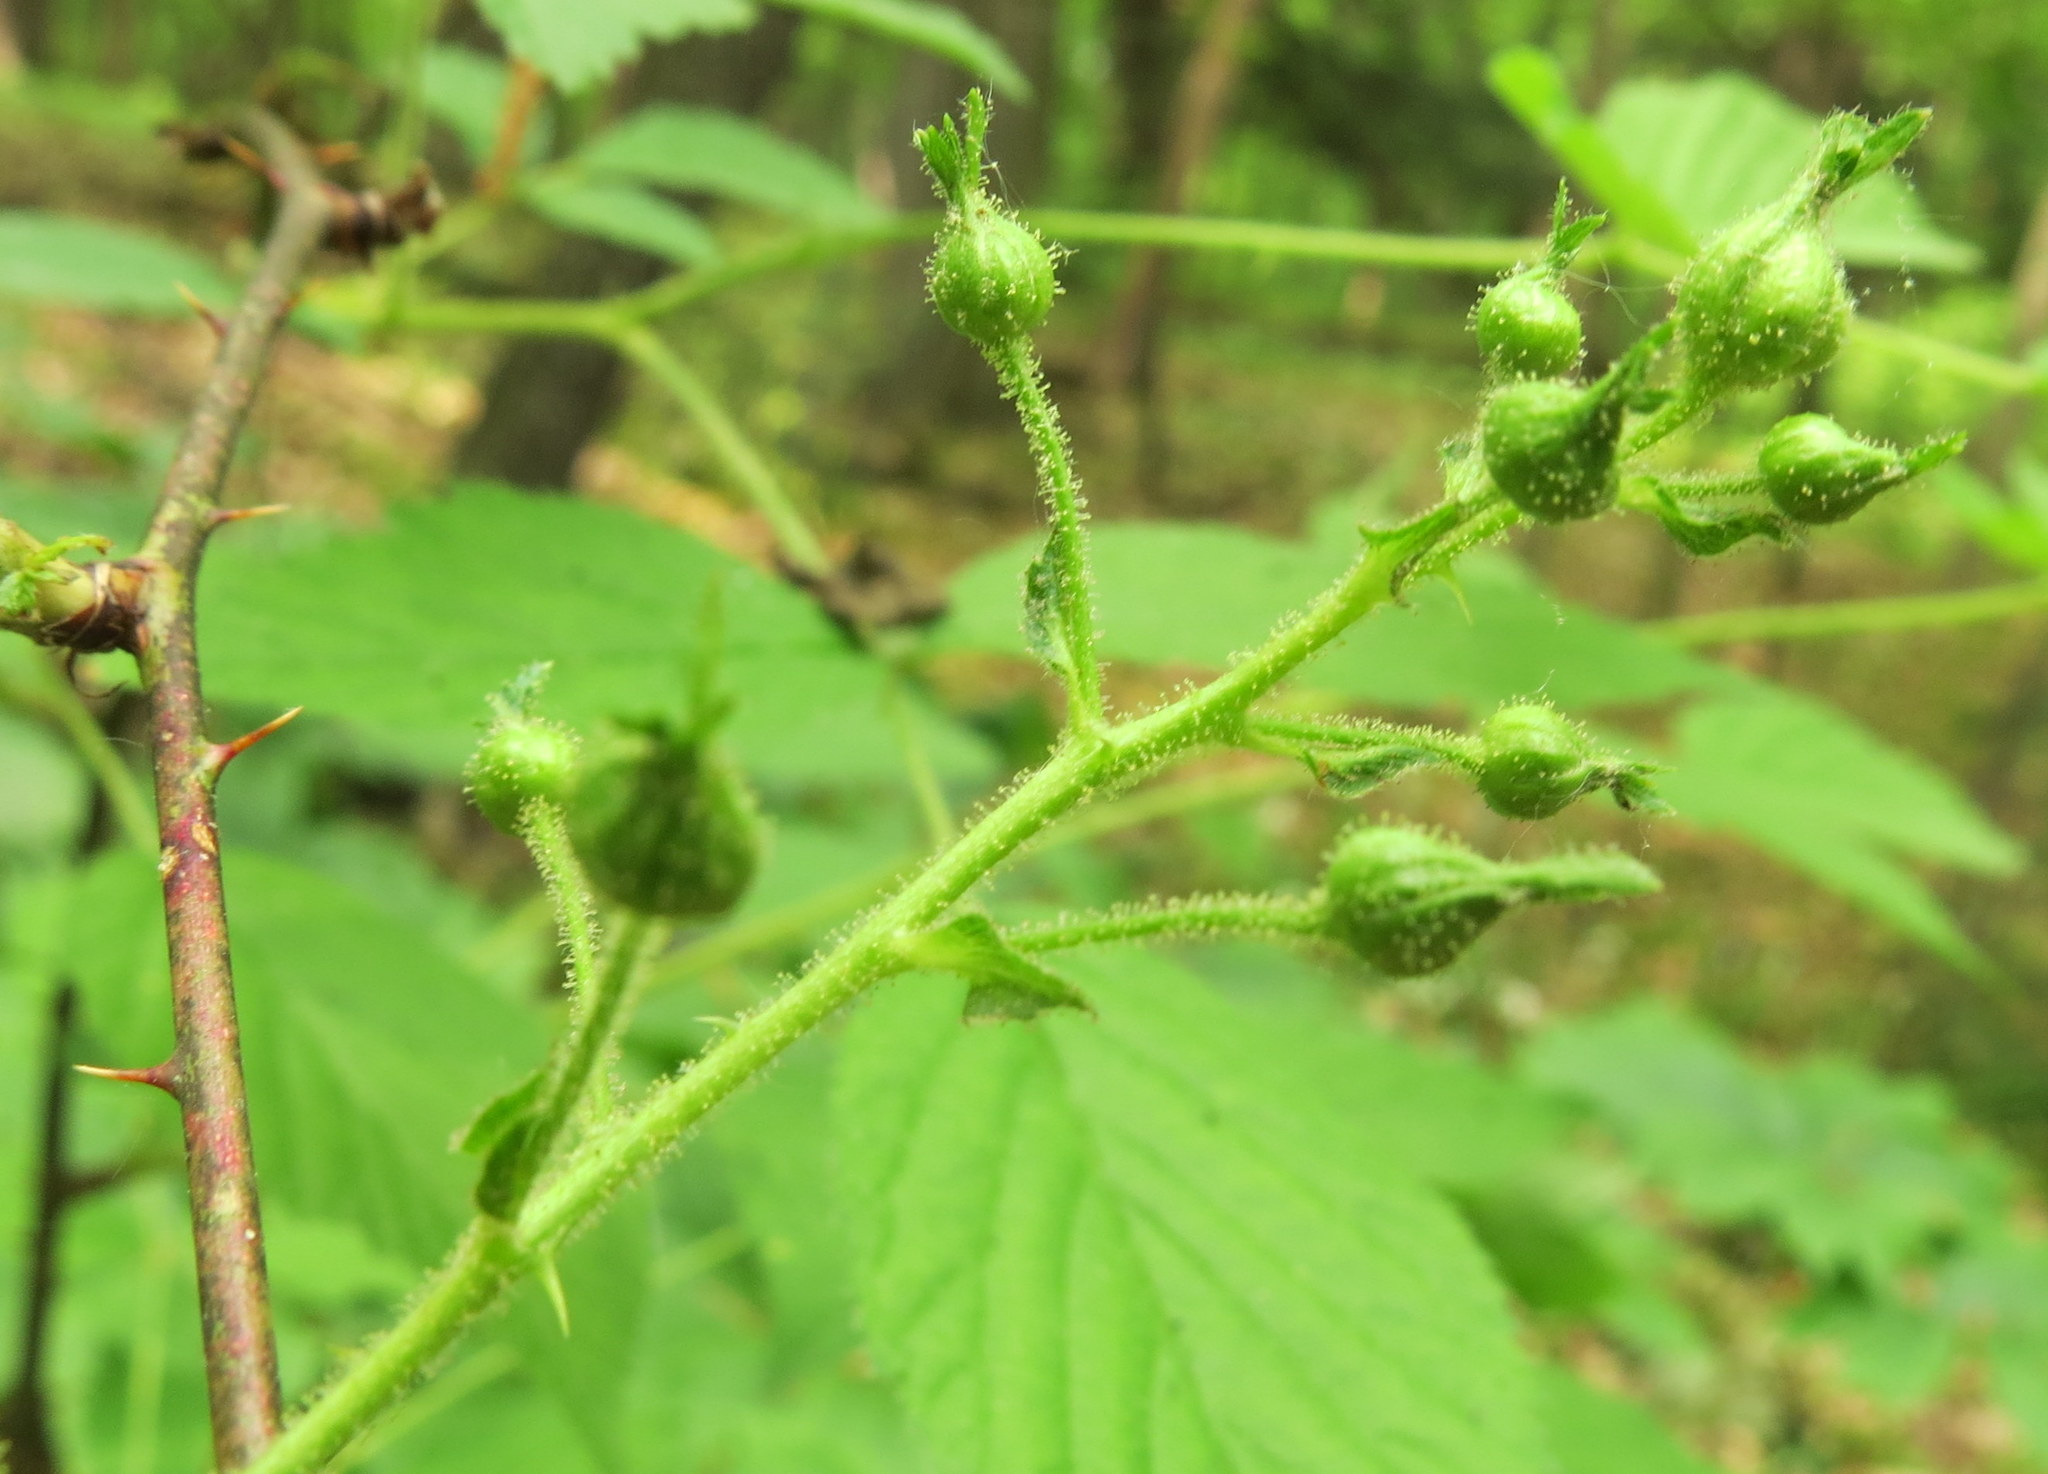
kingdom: Plantae
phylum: Tracheophyta
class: Magnoliopsida
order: Rosales
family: Rosaceae
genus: Rubus
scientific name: Rubus allegheniensis
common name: Allegheny blackberry
